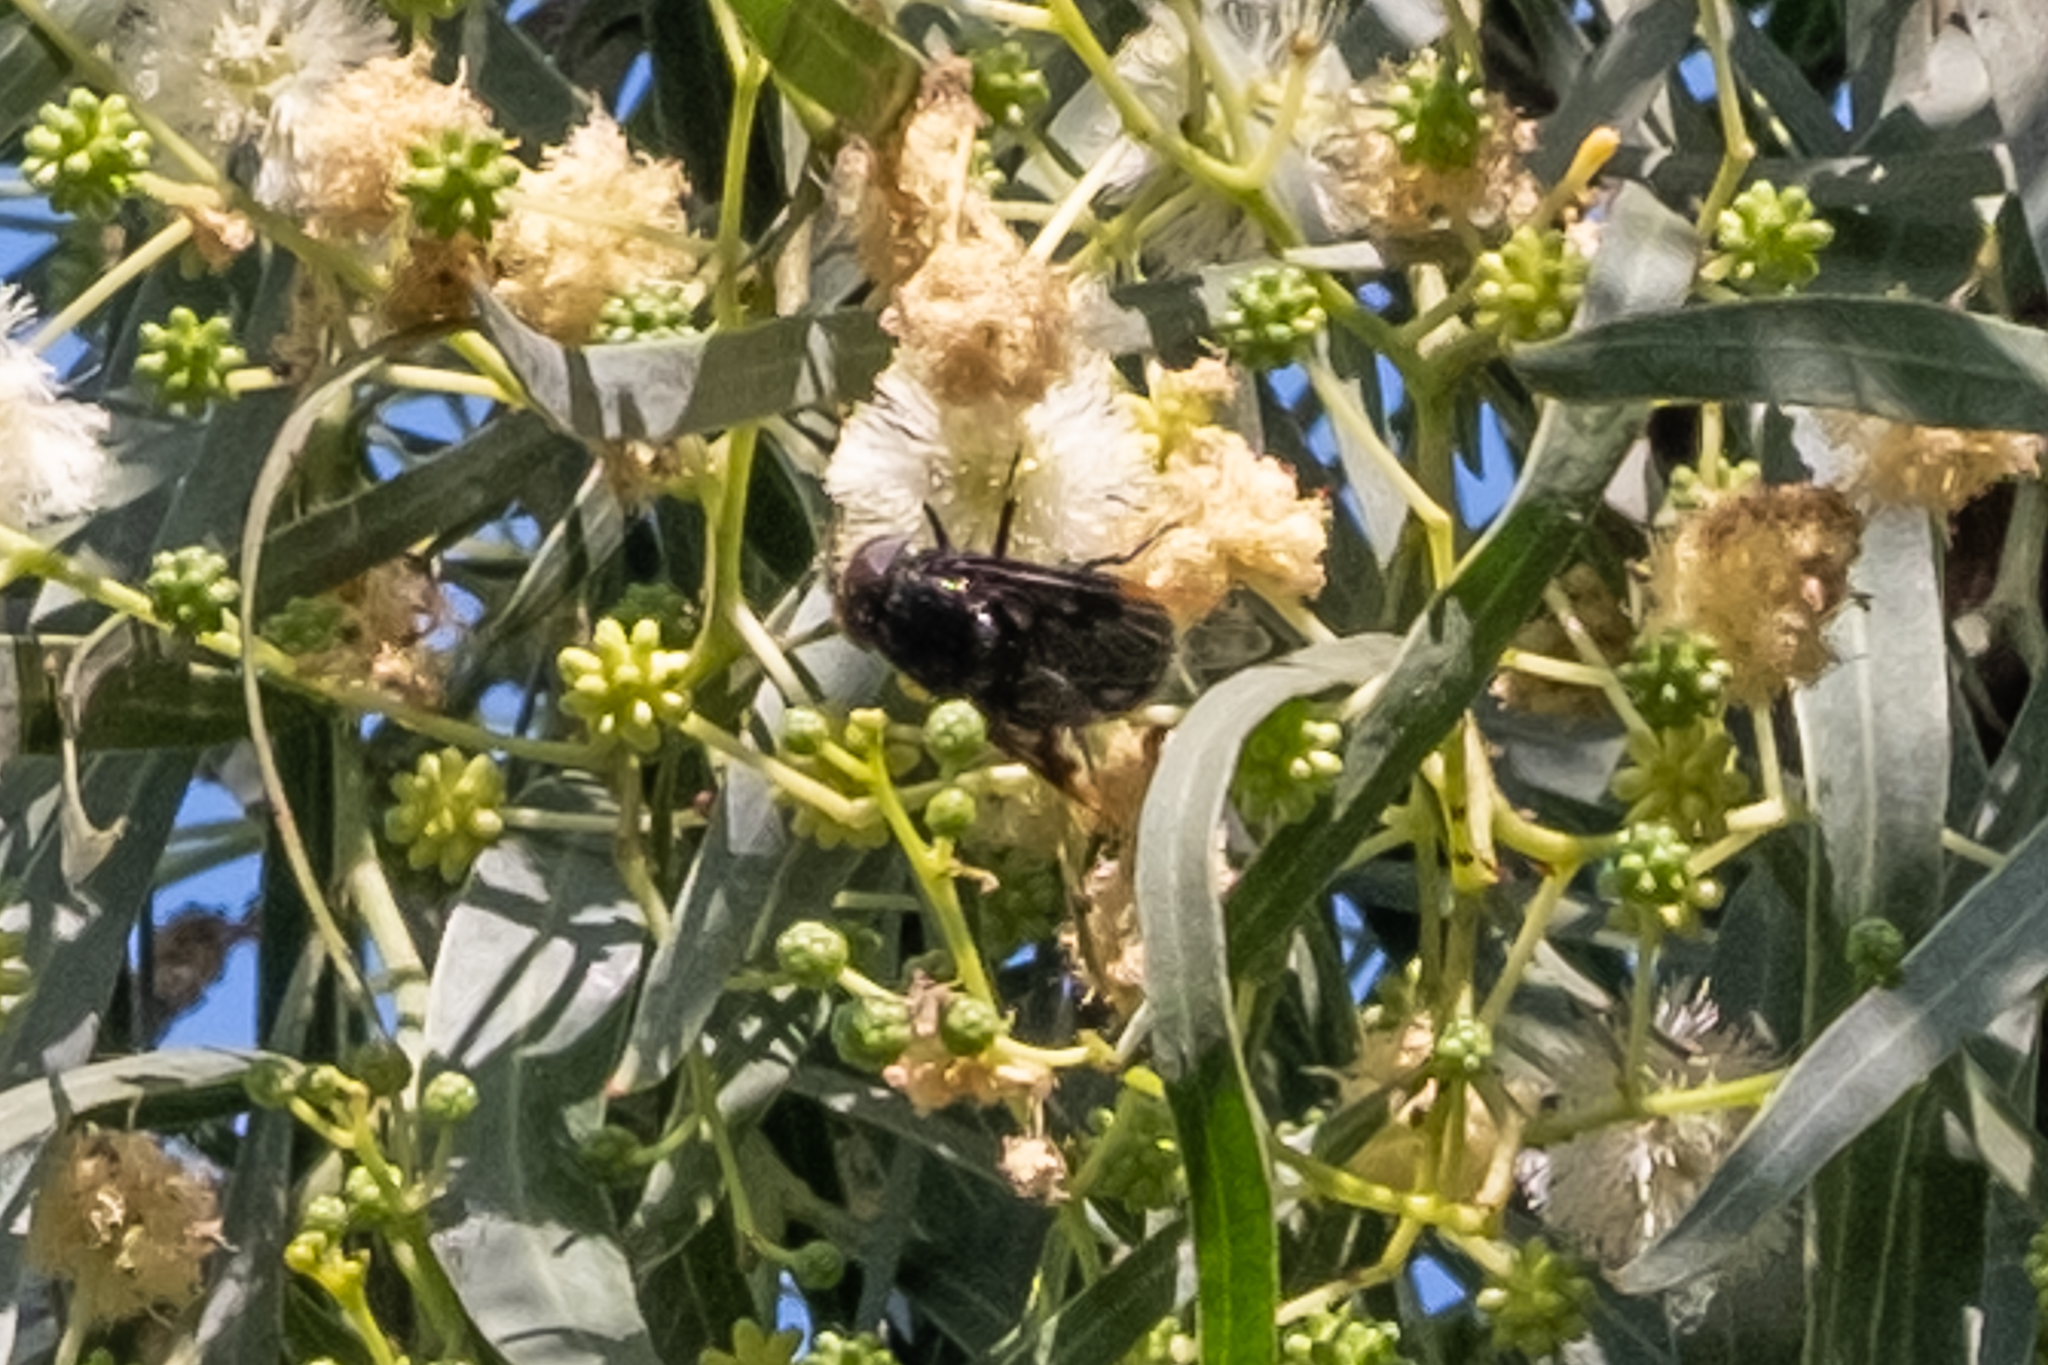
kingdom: Animalia
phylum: Arthropoda
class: Insecta
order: Diptera
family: Syrphidae
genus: Copestylum
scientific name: Copestylum
